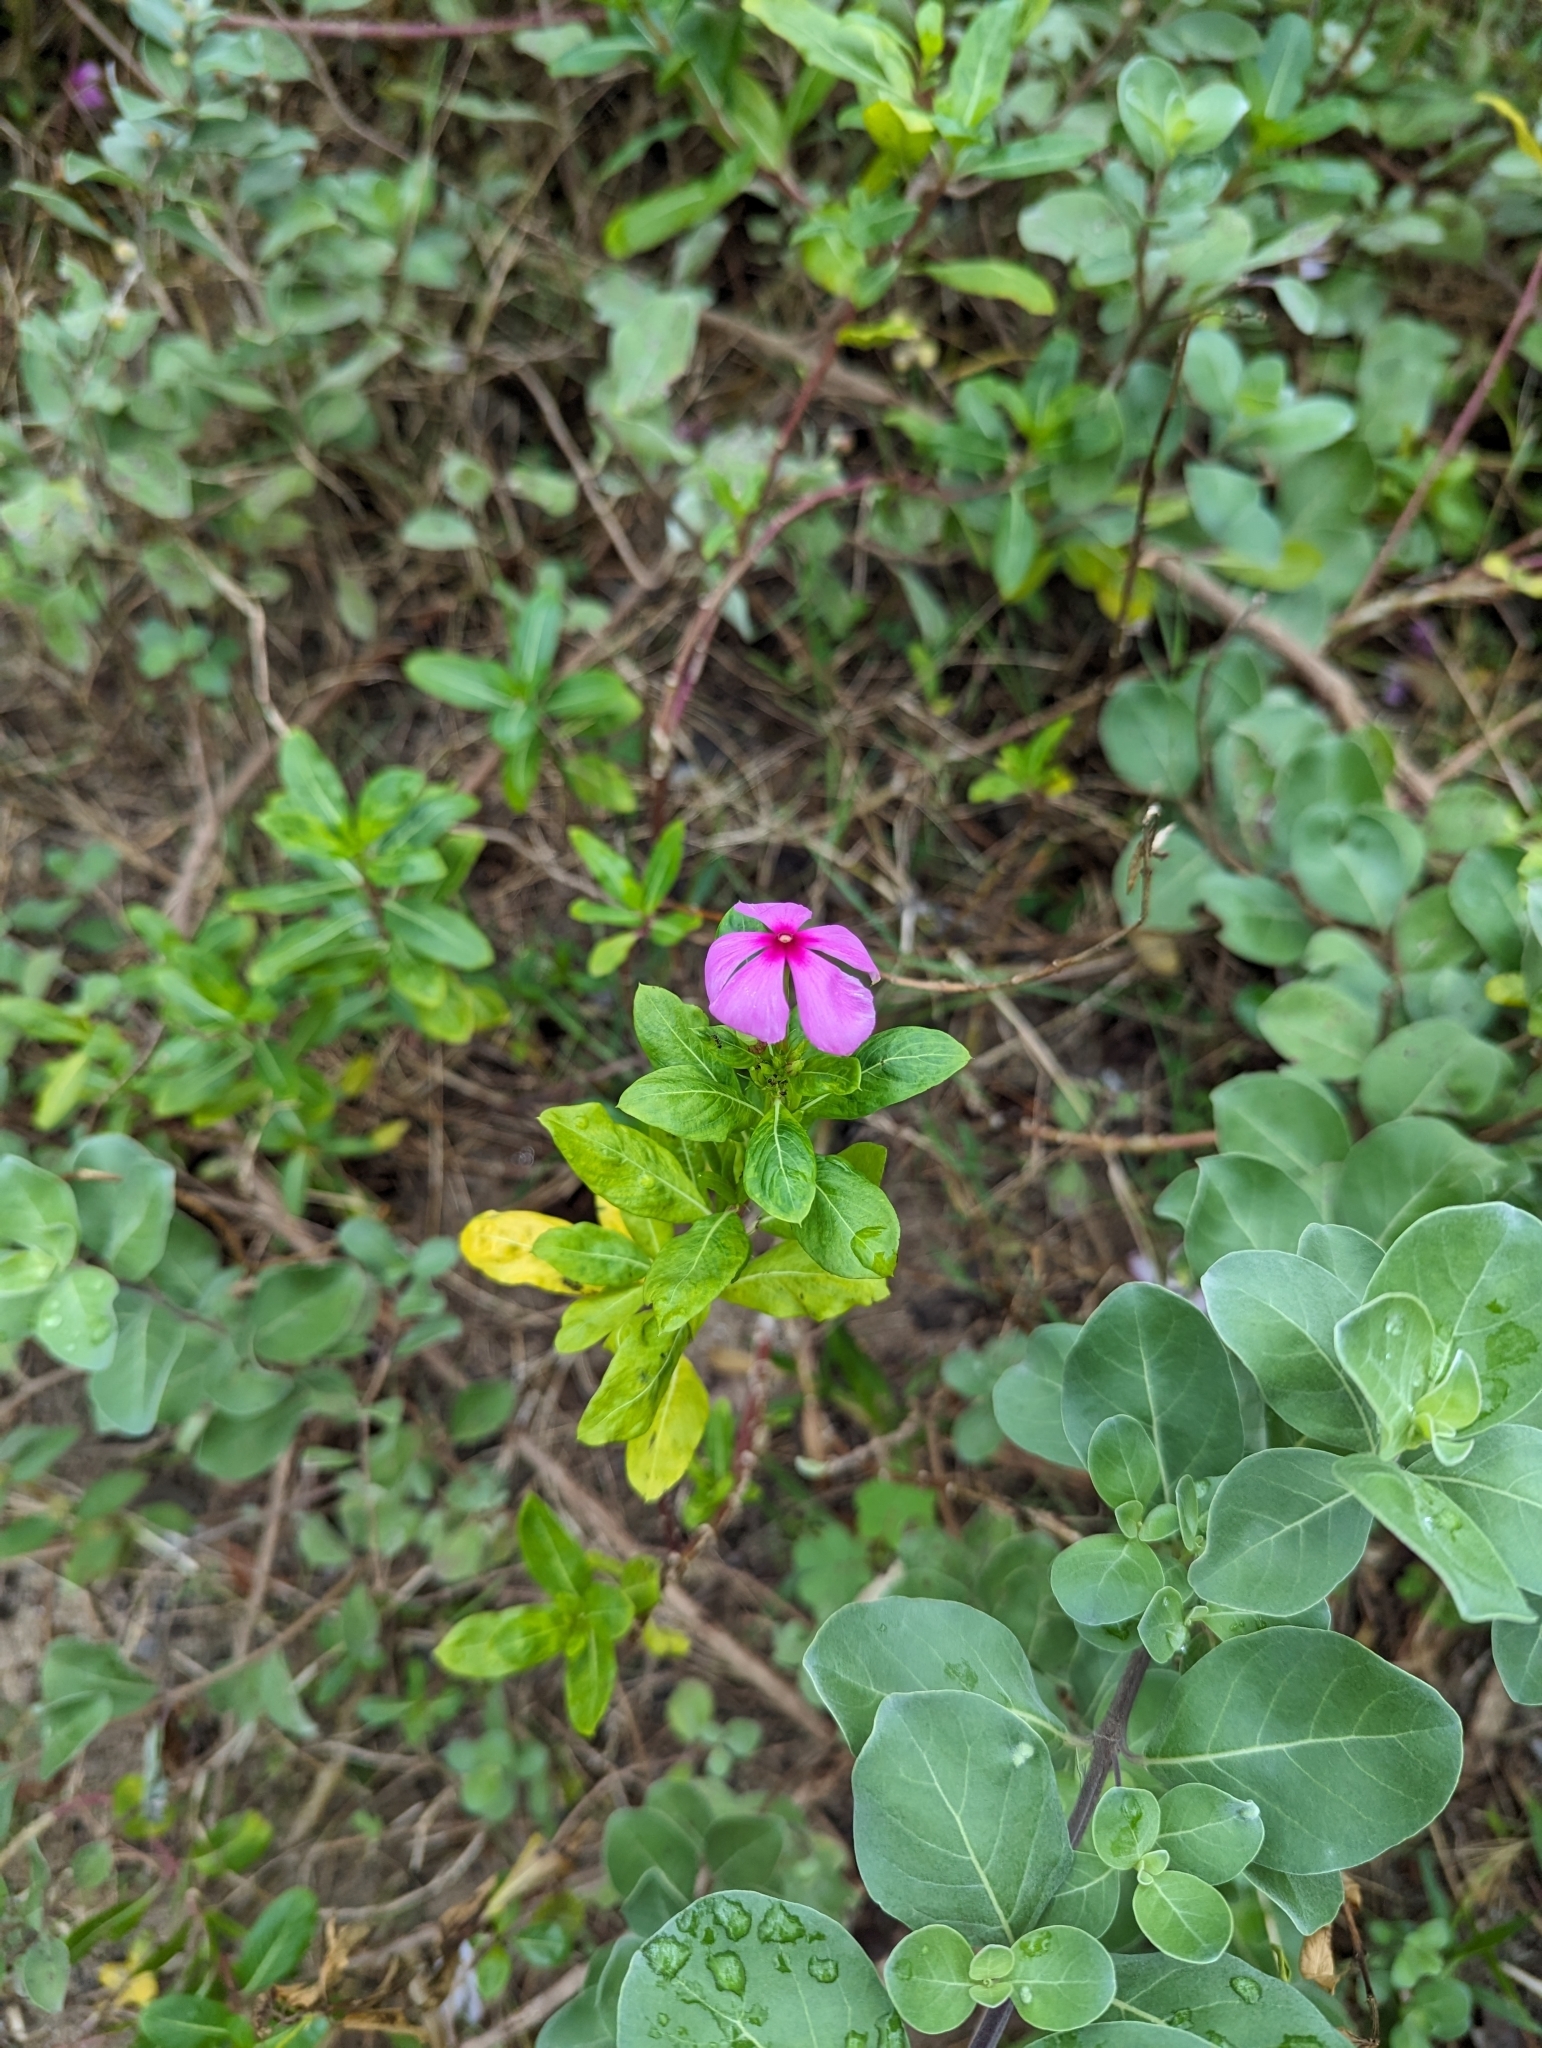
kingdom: Plantae
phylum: Tracheophyta
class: Magnoliopsida
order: Gentianales
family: Apocynaceae
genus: Catharanthus
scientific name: Catharanthus roseus
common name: Madagascar periwinkle
